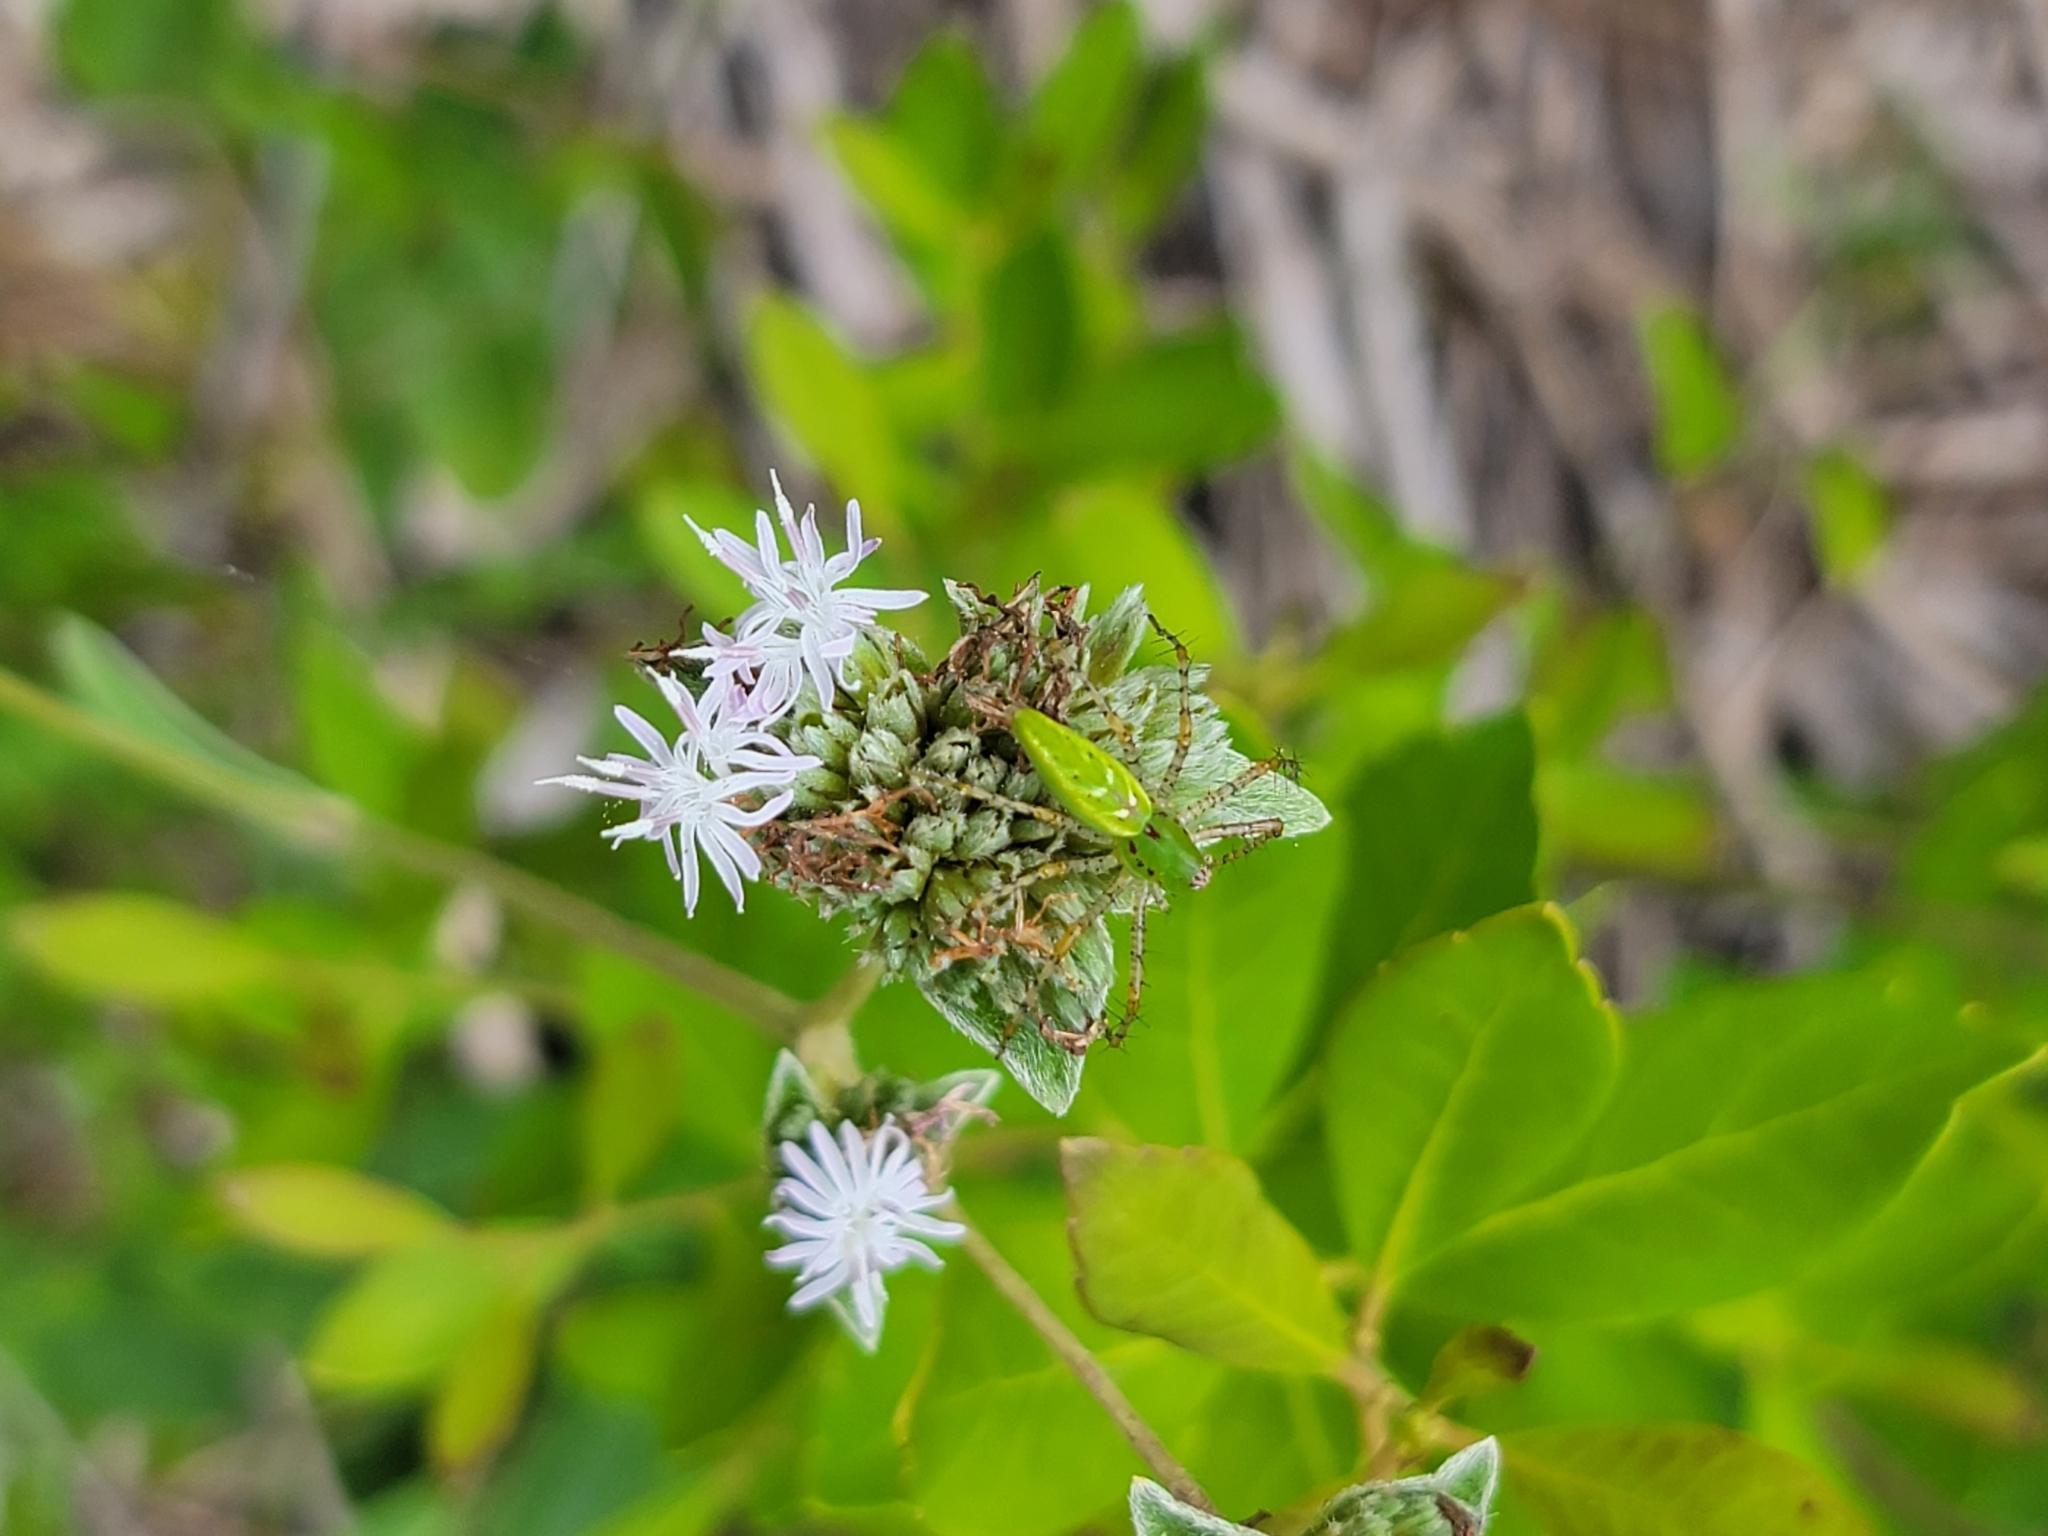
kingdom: Animalia
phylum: Arthropoda
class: Arachnida
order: Araneae
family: Oxyopidae
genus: Peucetia
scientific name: Peucetia viridans
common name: Lynx spiders
